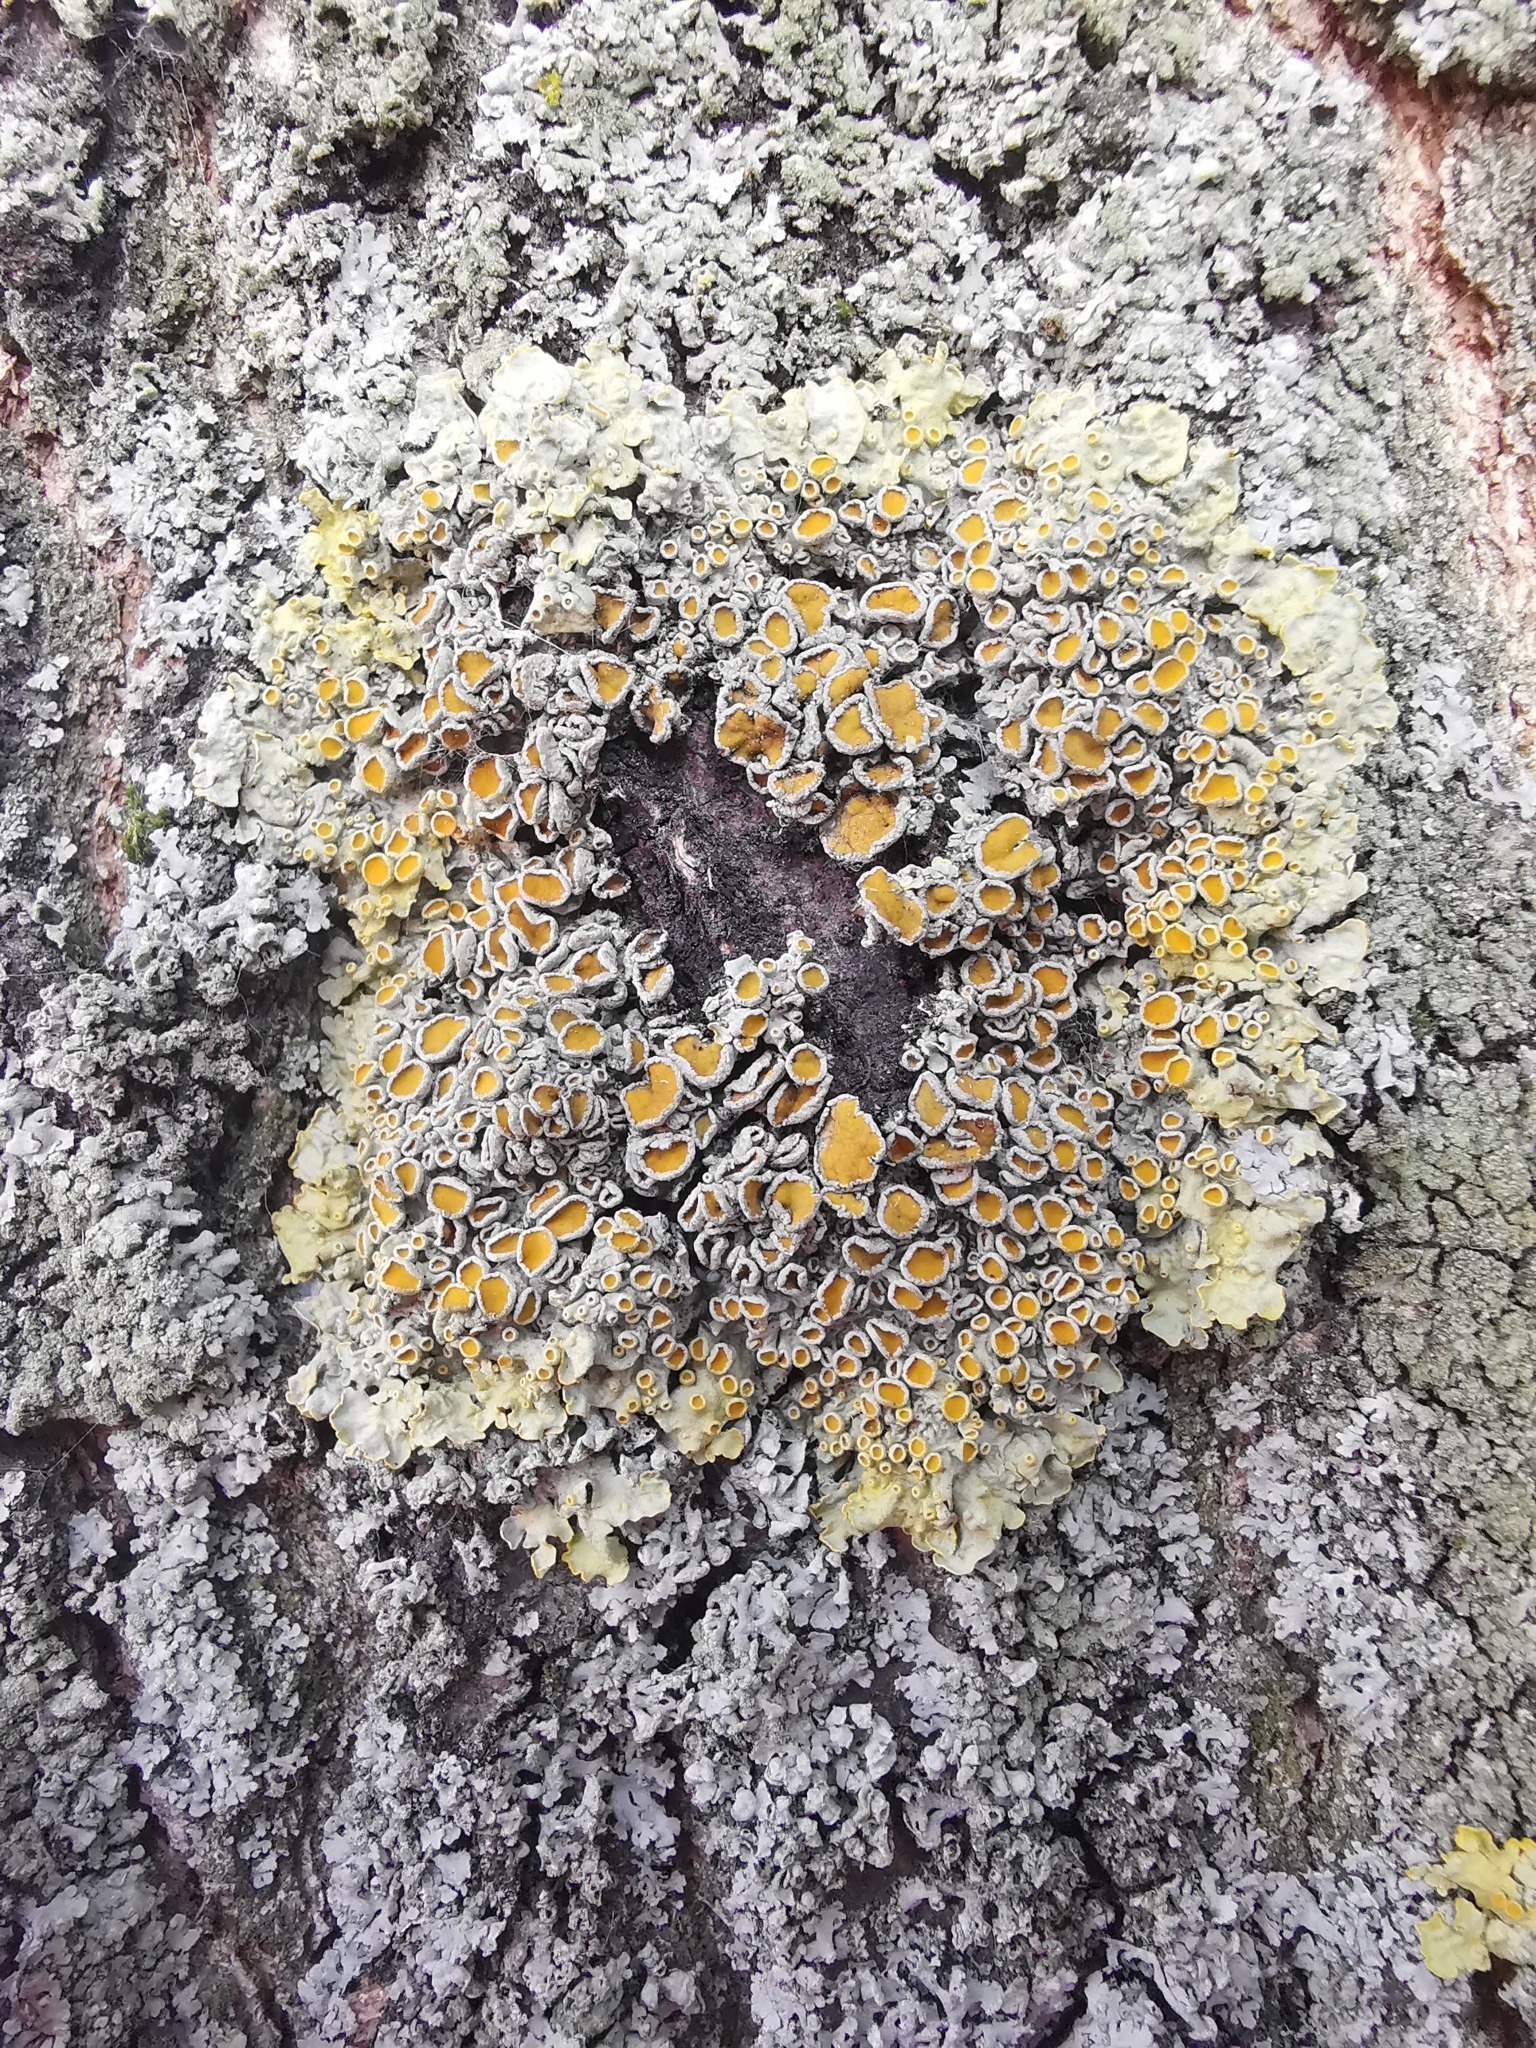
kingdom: Fungi
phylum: Ascomycota
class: Lecanoromycetes
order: Teloschistales
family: Teloschistaceae
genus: Xanthoria
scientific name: Xanthoria parietina
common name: Common orange lichen
